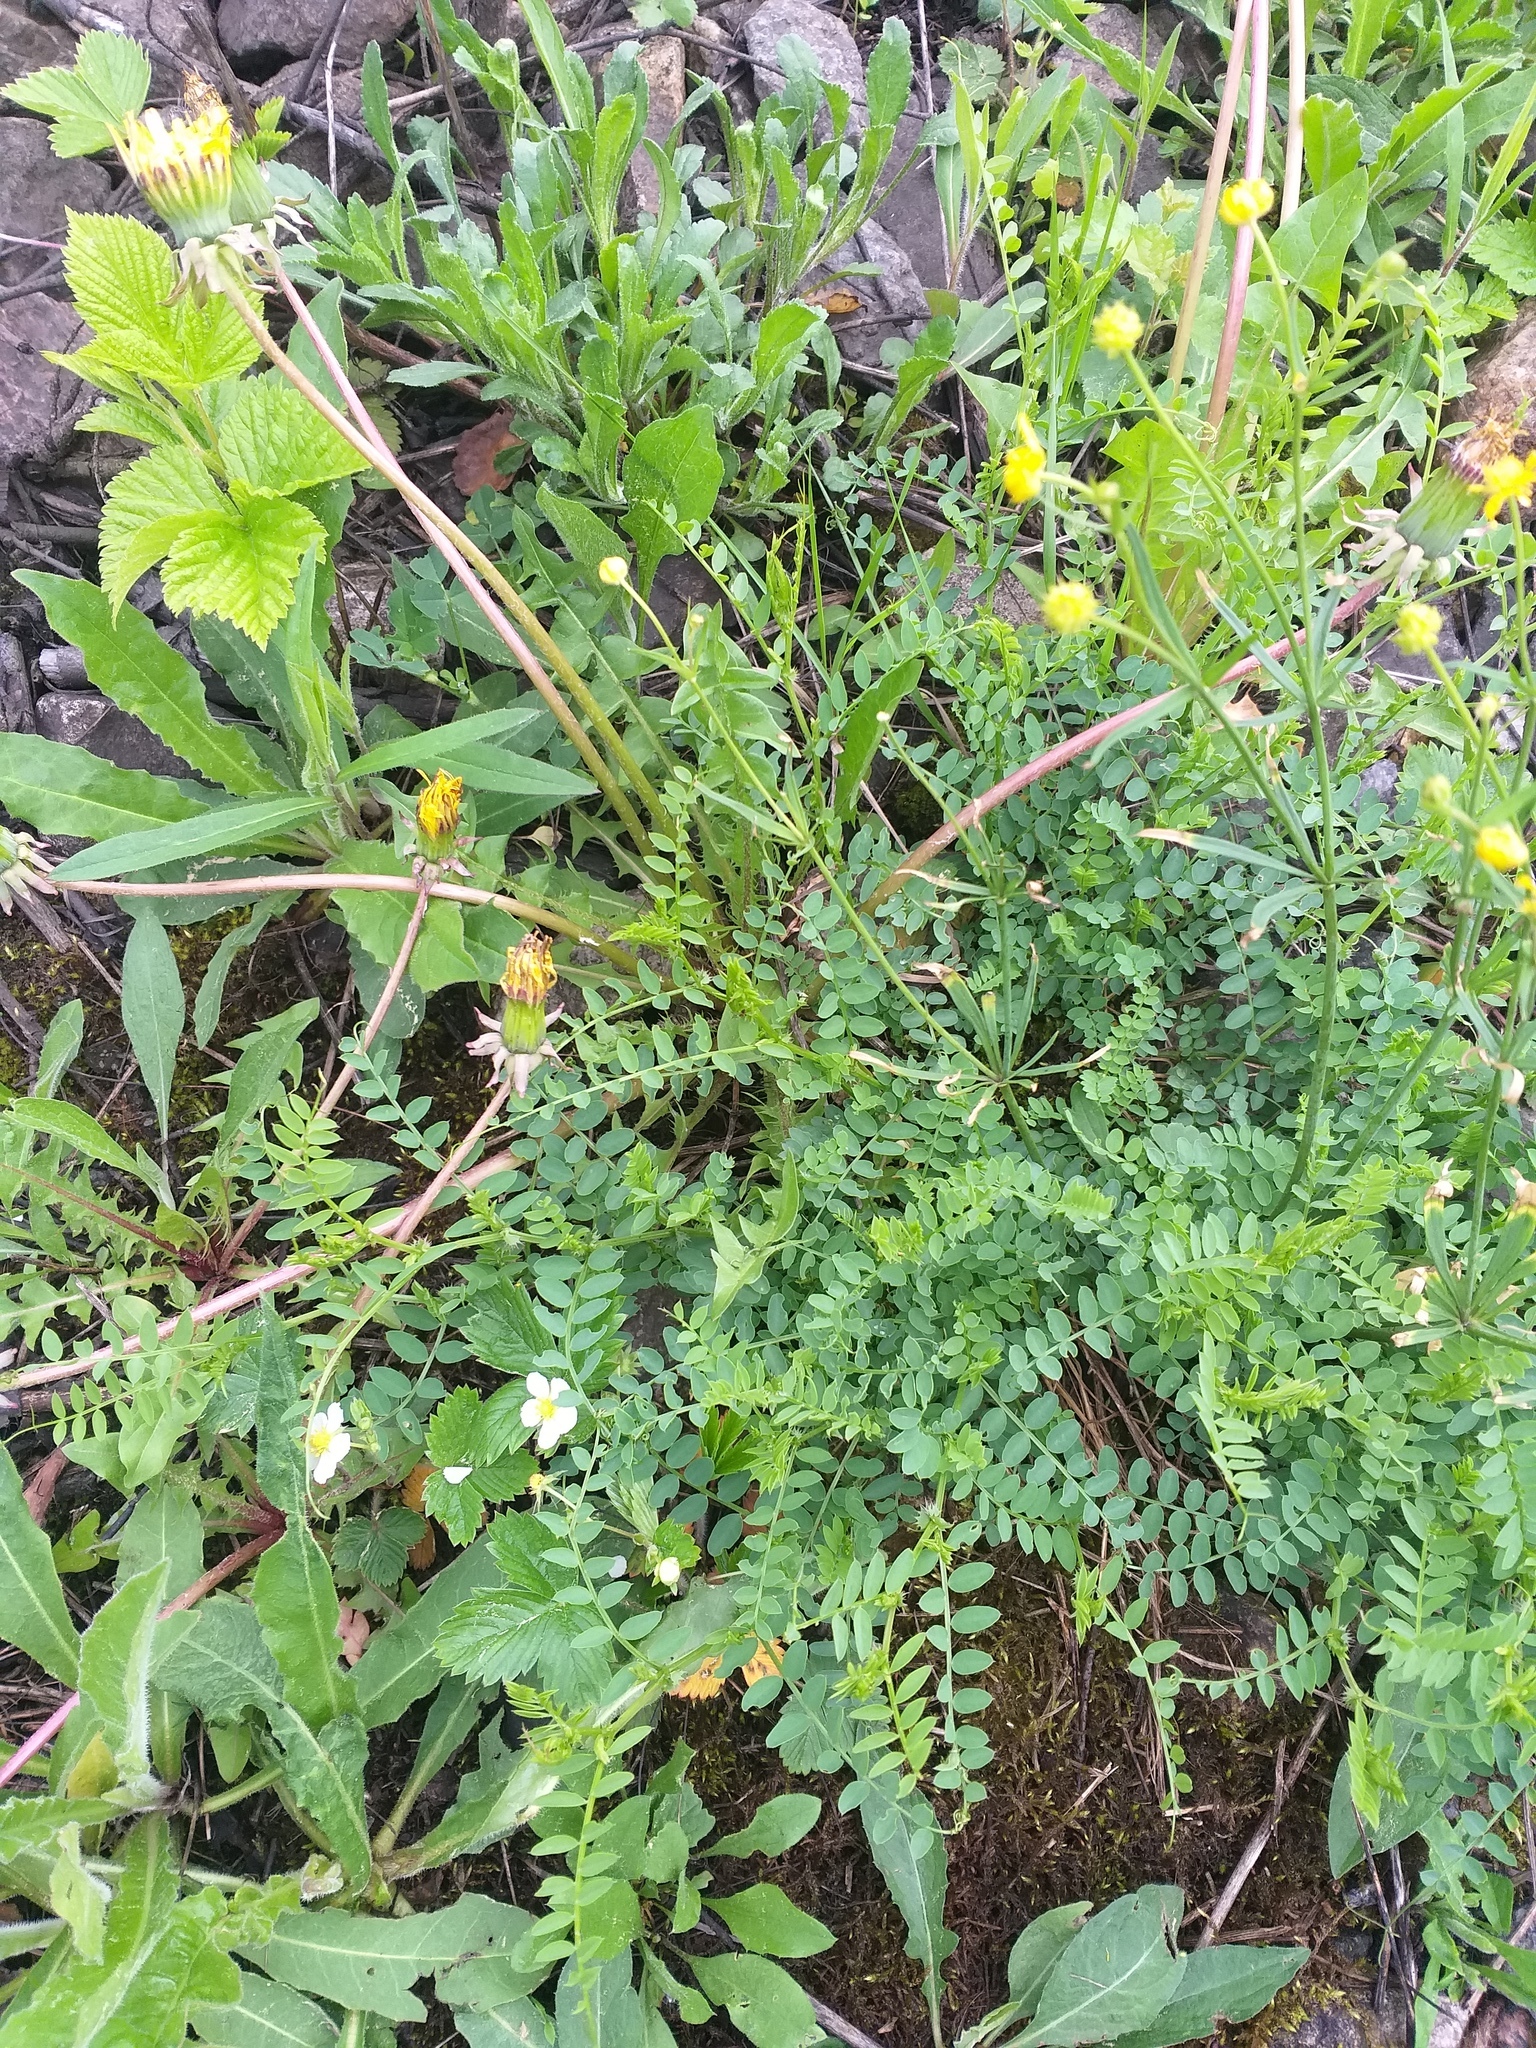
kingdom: Plantae
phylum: Tracheophyta
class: Magnoliopsida
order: Fabales
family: Fabaceae
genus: Vicia
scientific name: Vicia sylvatica
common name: Wood vetch
